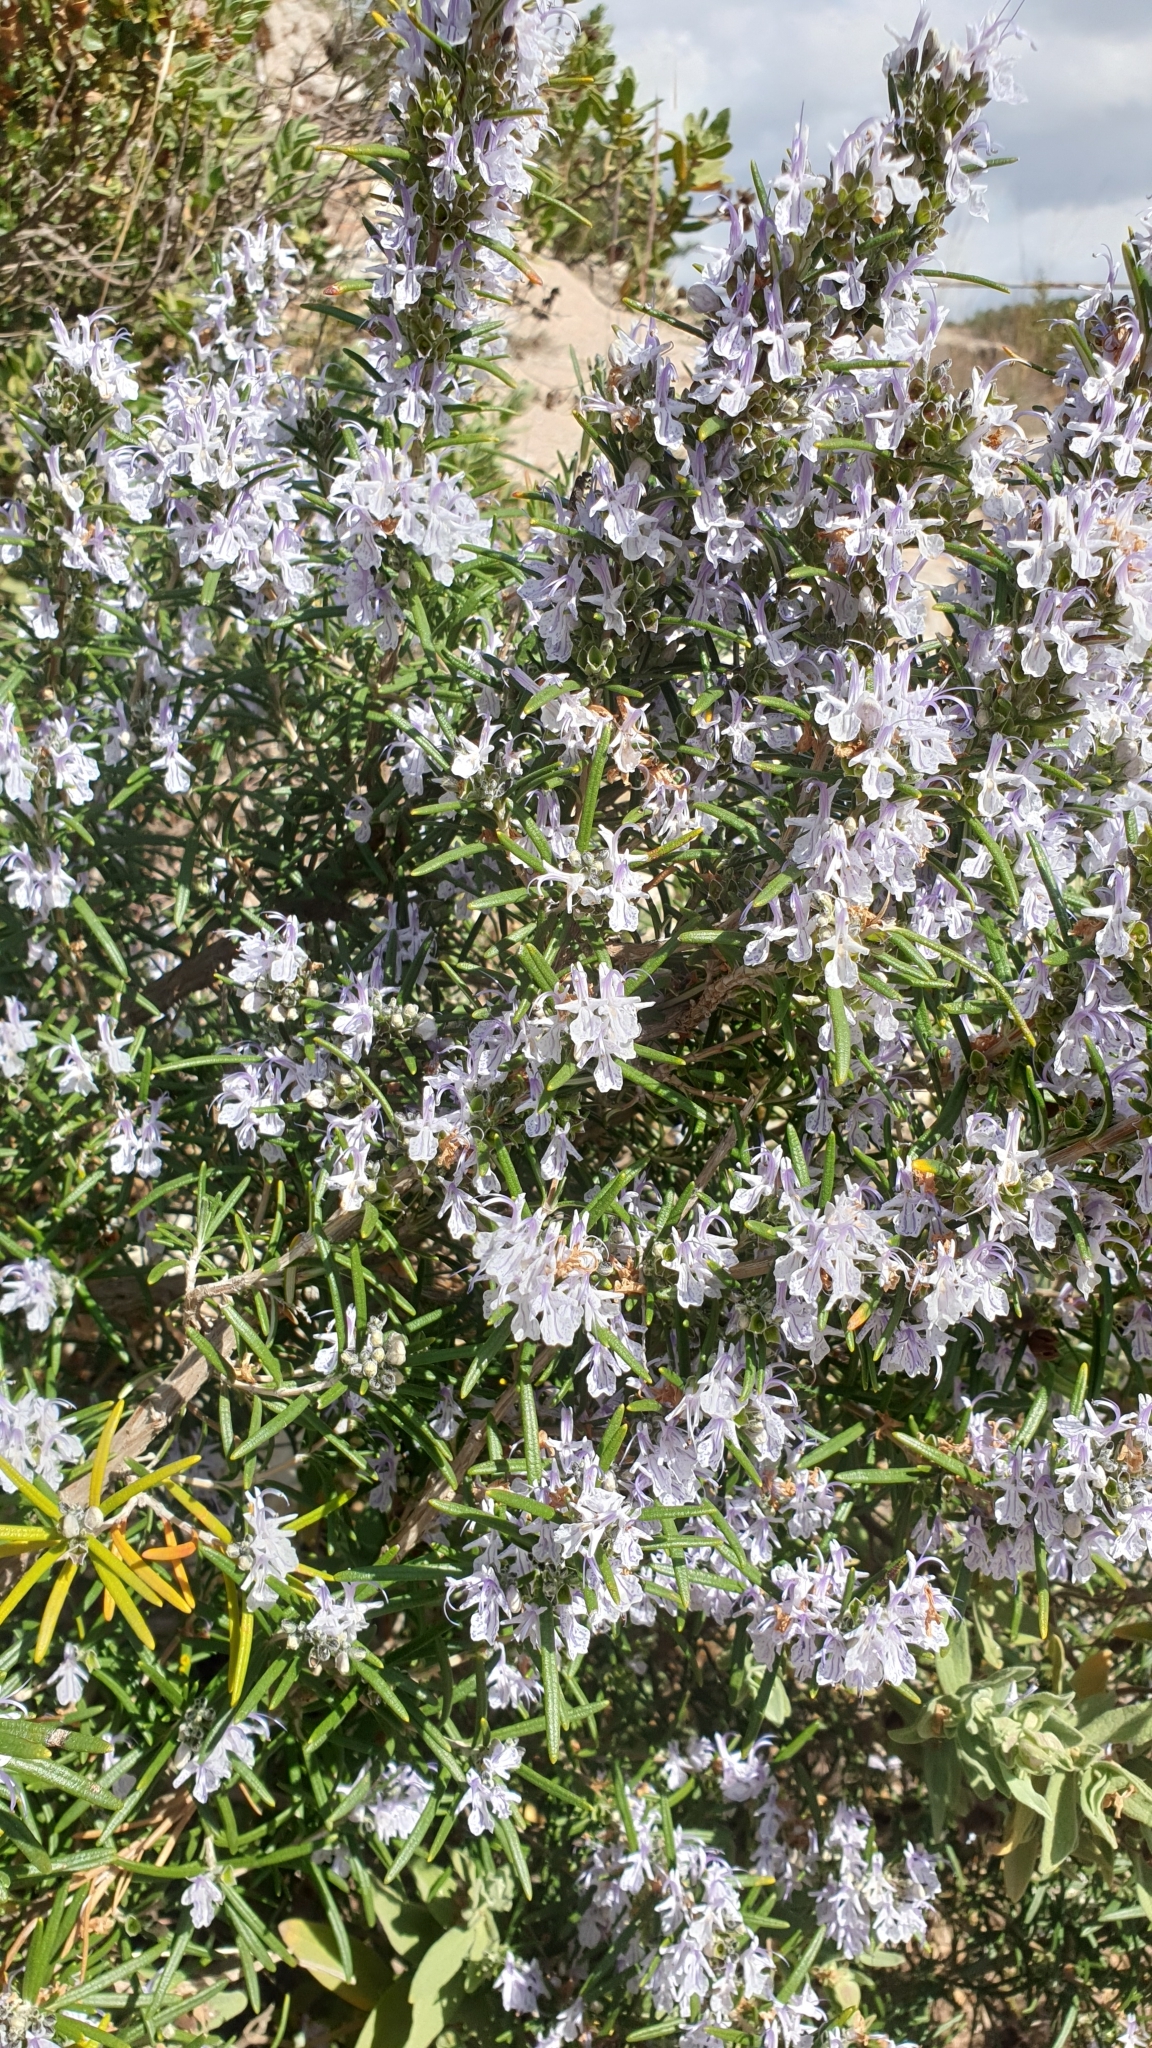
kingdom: Plantae
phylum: Tracheophyta
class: Magnoliopsida
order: Lamiales
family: Lamiaceae
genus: Salvia
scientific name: Salvia rosmarinus
